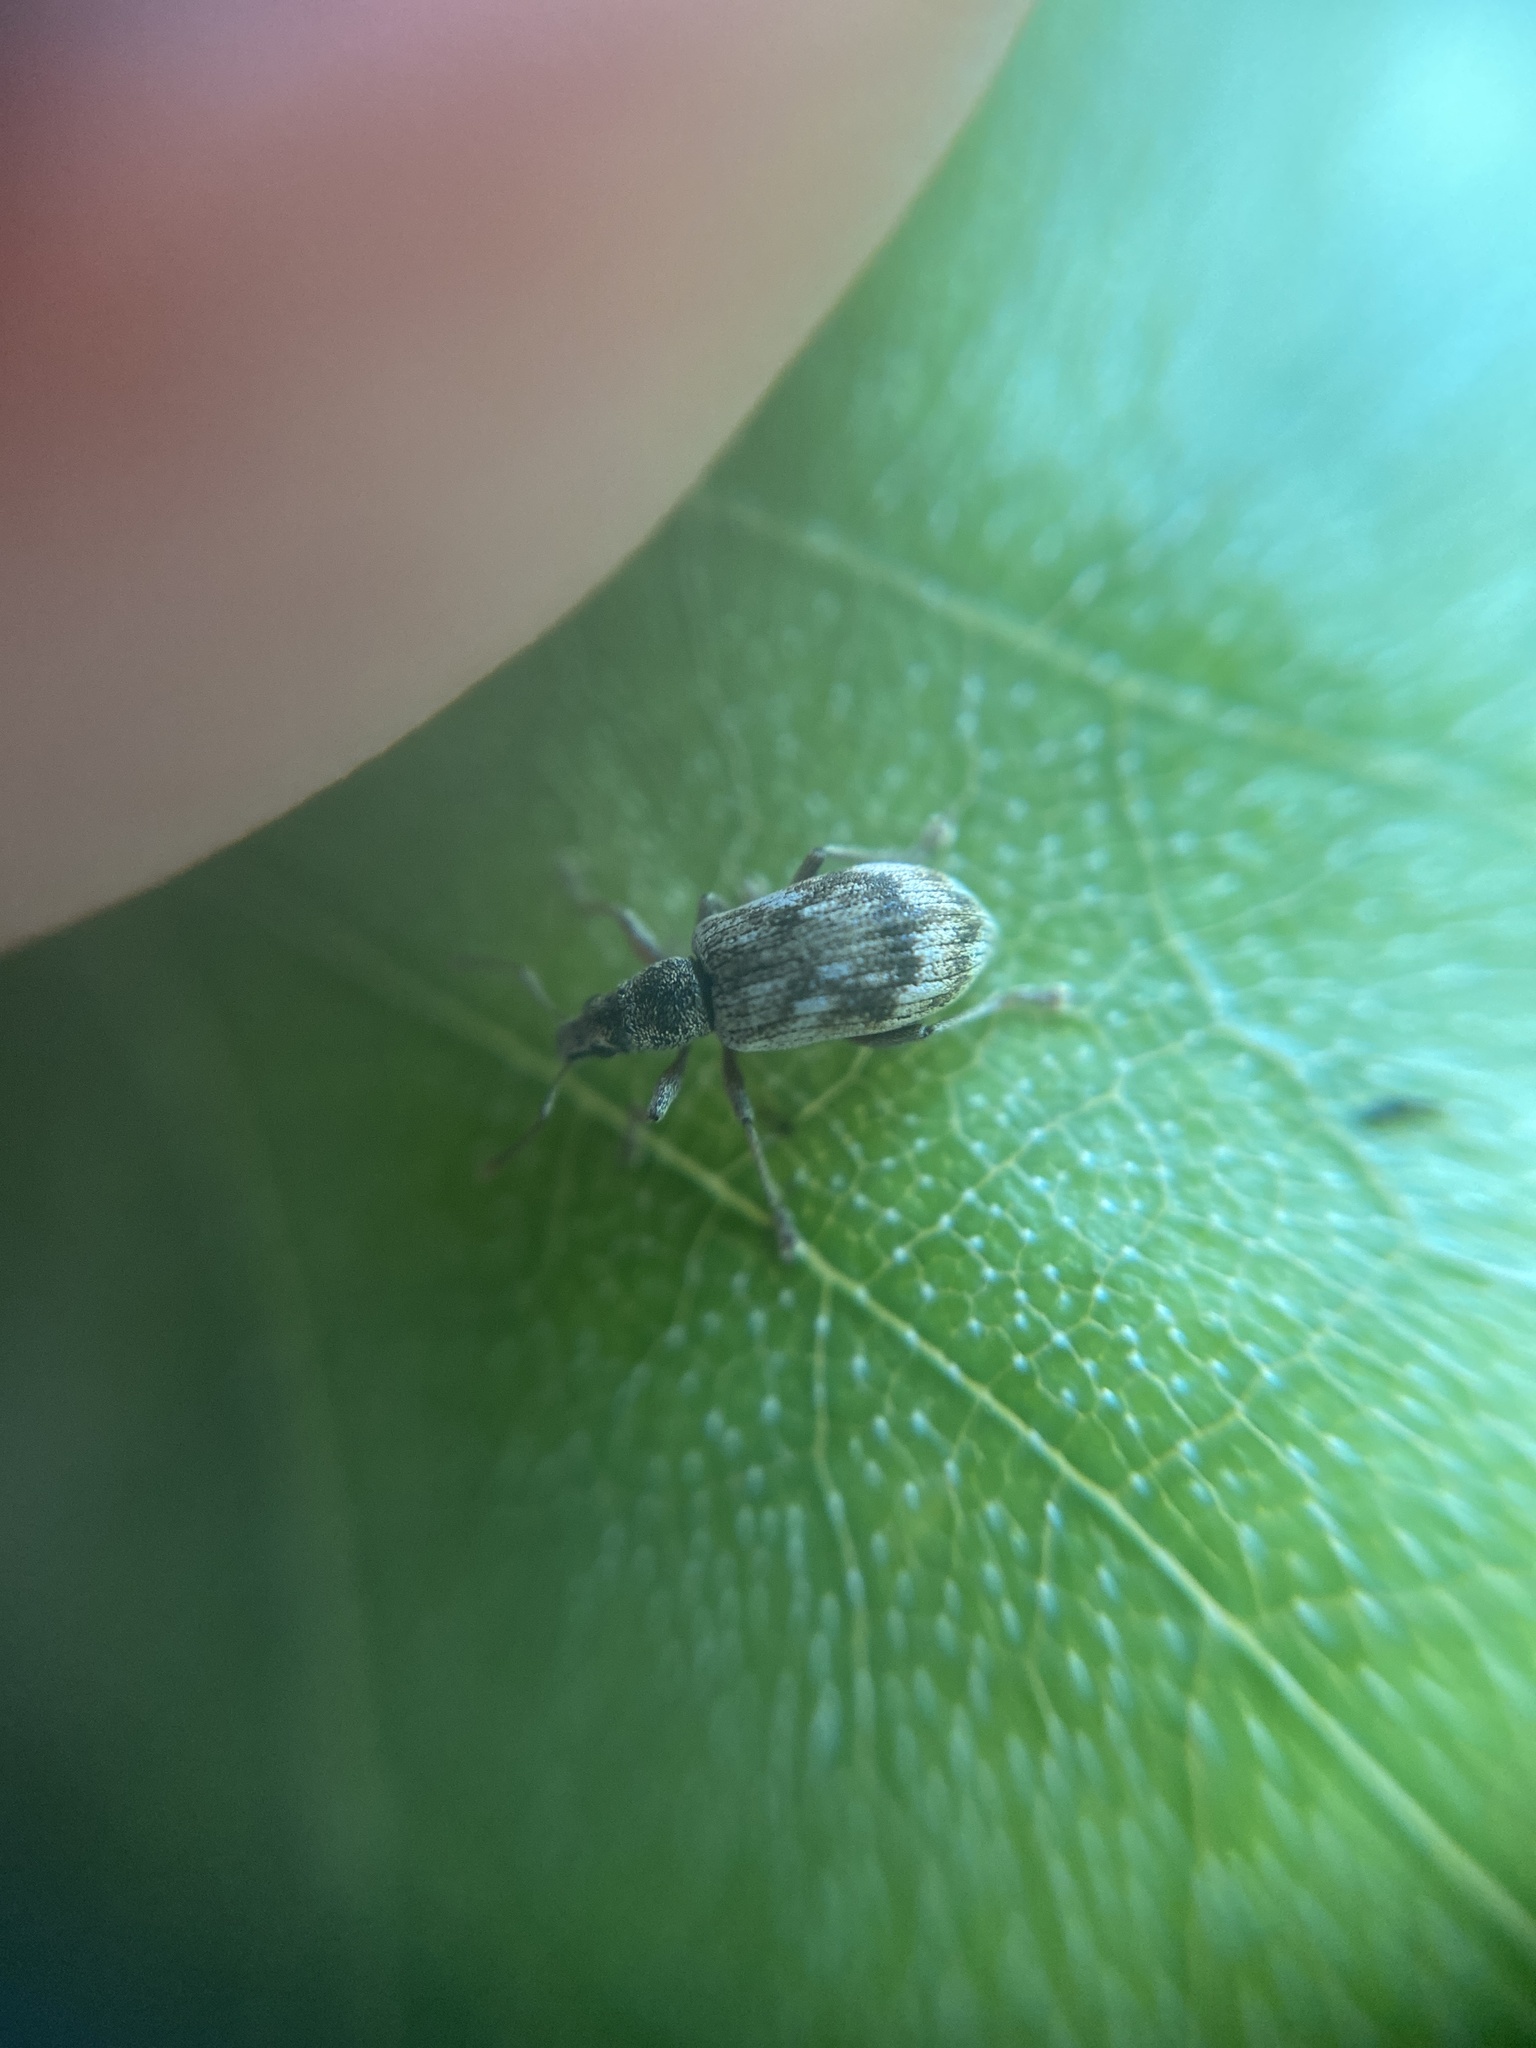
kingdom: Animalia
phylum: Arthropoda
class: Insecta
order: Coleoptera
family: Curculionidae
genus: Polydrusus
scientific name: Polydrusus tereticollis
